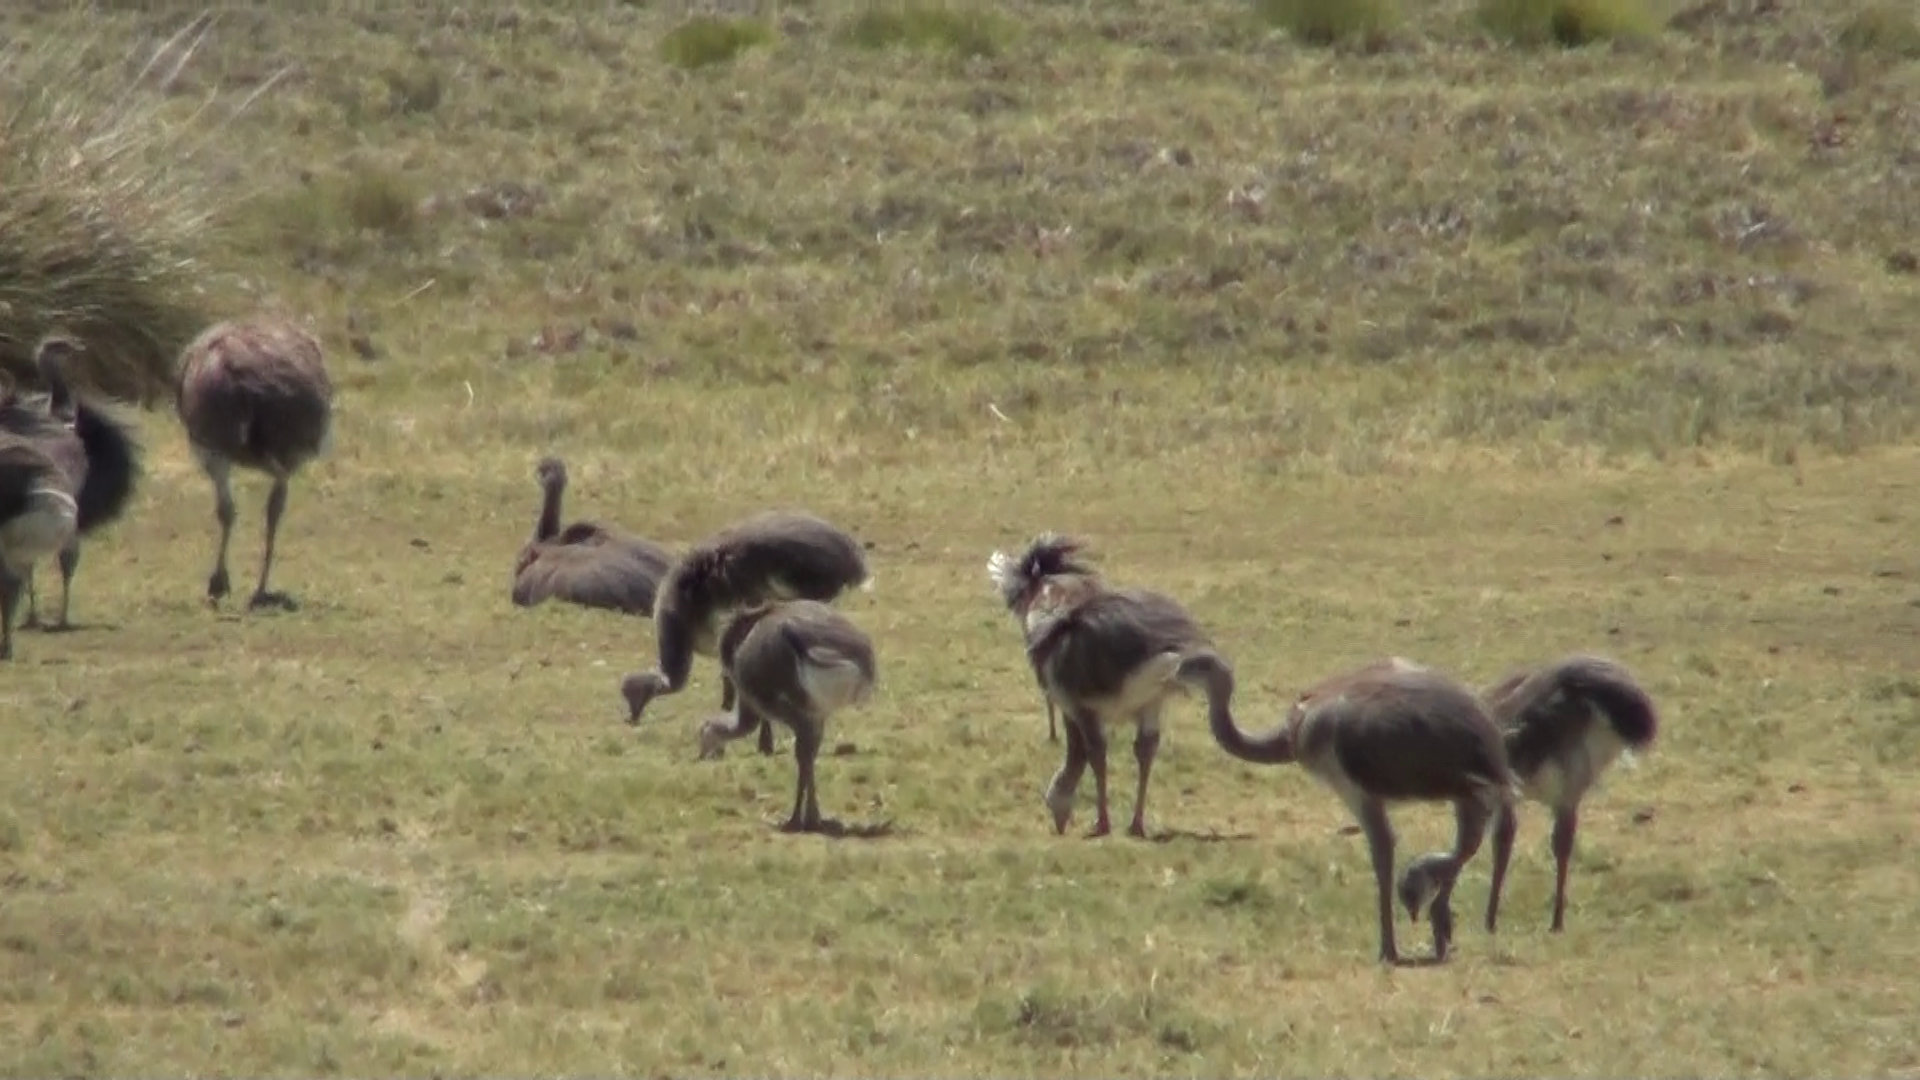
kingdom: Animalia
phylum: Chordata
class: Aves
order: Rheiformes
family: Rheidae
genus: Rhea
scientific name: Rhea pennata
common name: Lesser rhea
